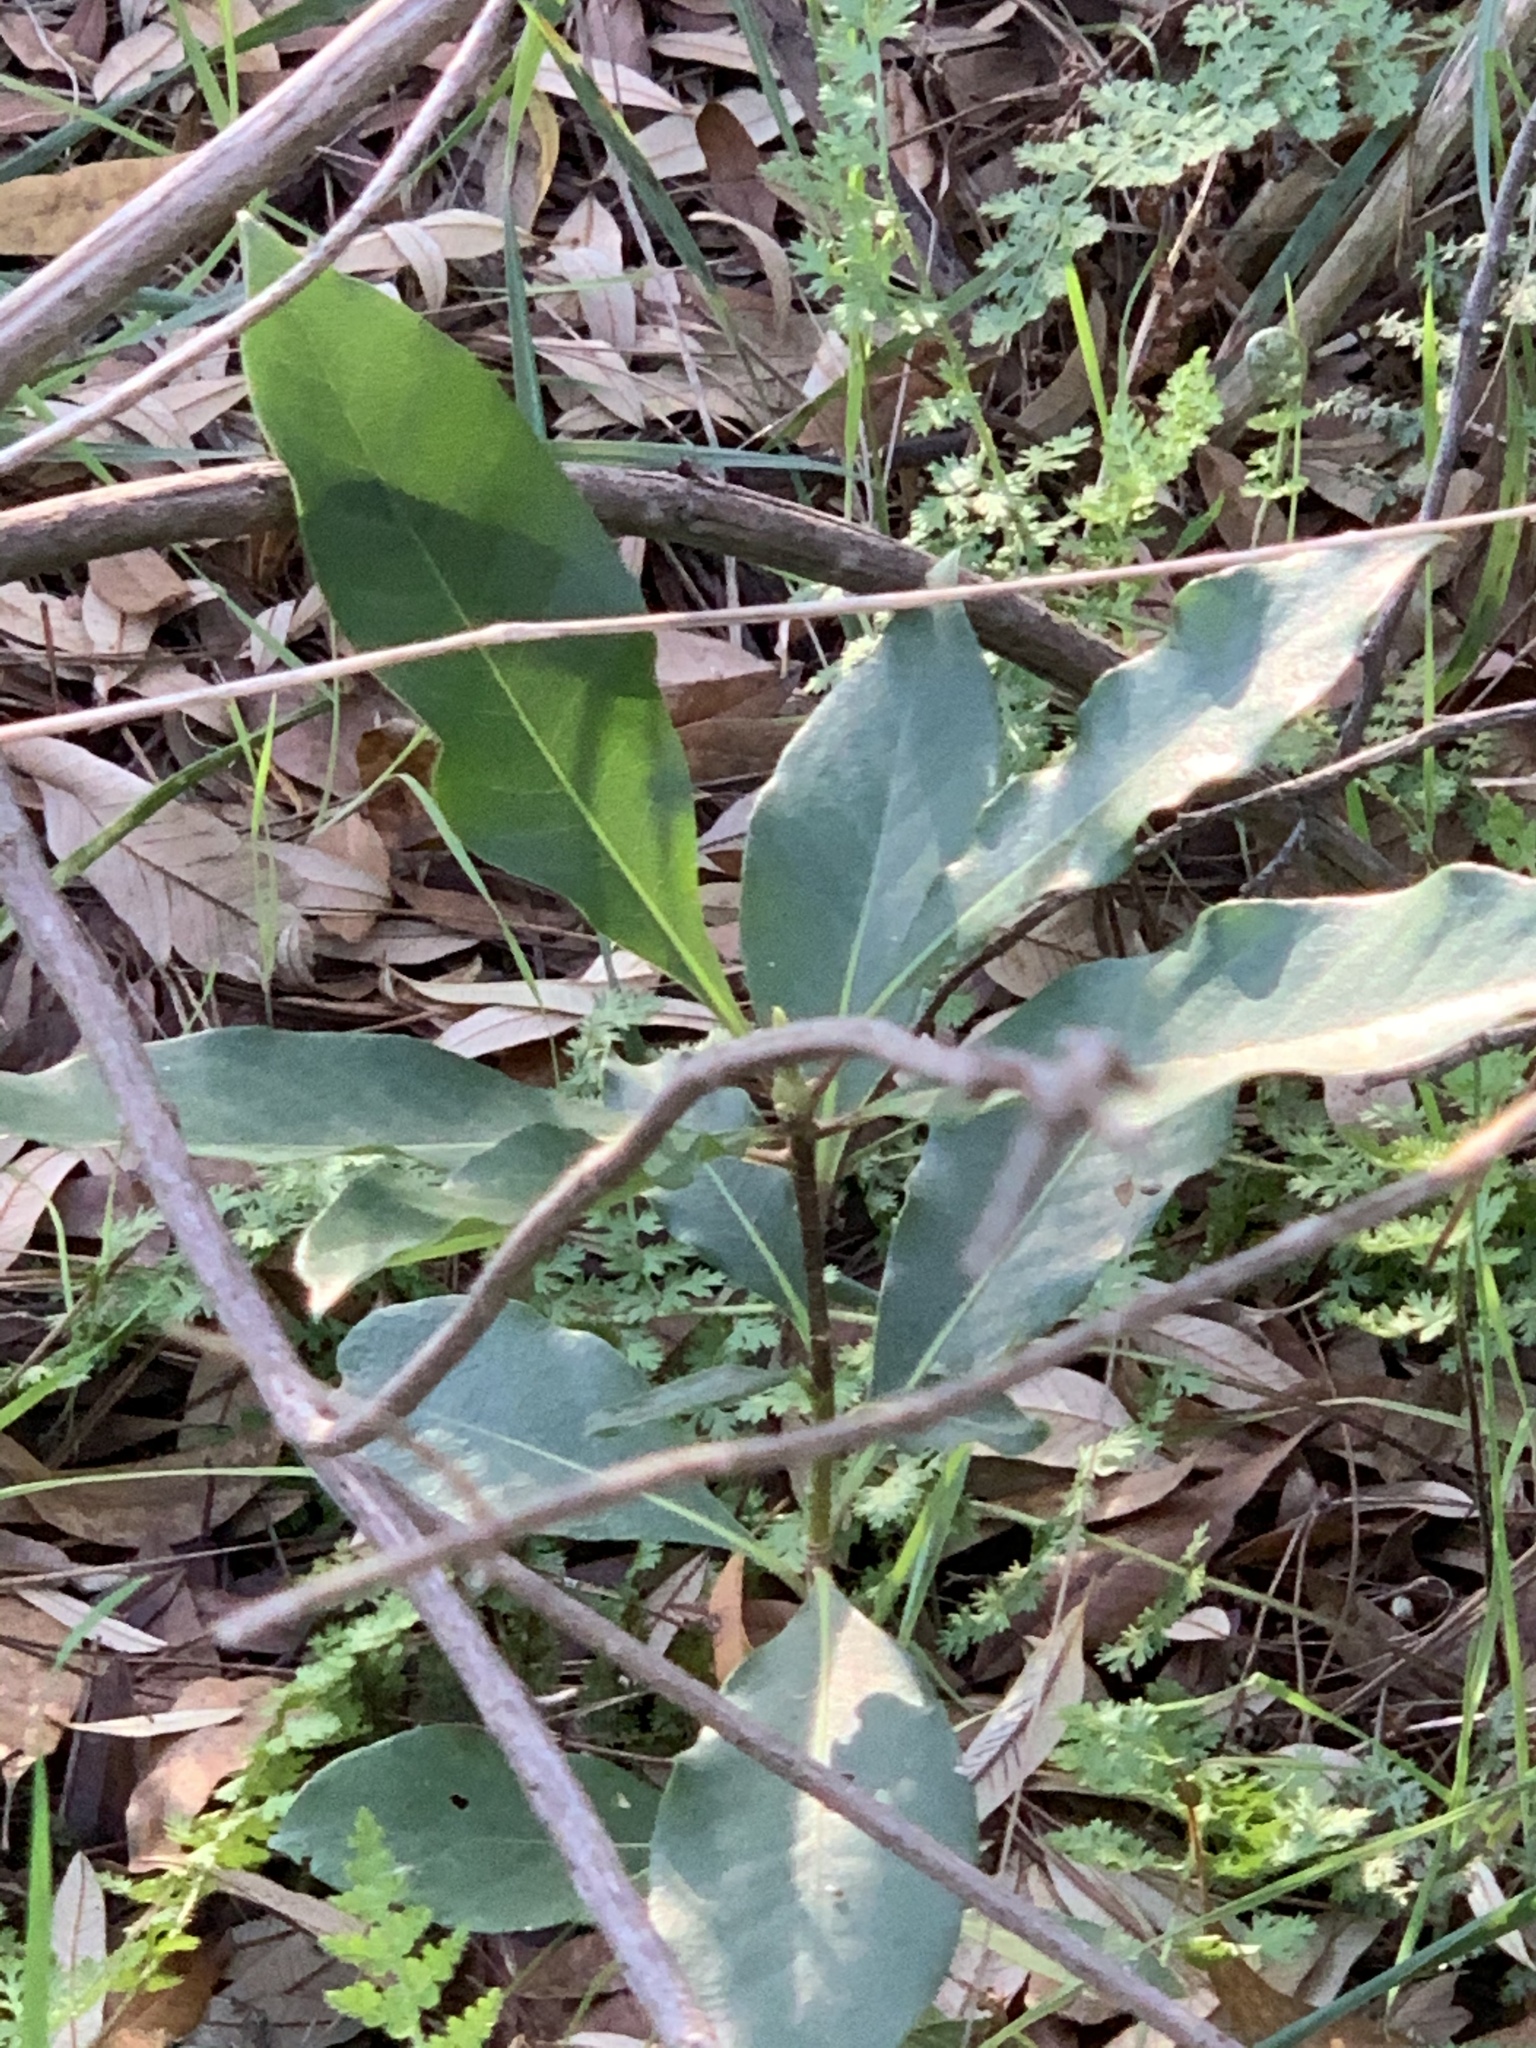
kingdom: Plantae
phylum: Tracheophyta
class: Magnoliopsida
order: Apiales
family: Pittosporaceae
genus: Pittosporum
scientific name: Pittosporum undulatum
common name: Australian cheesewood
